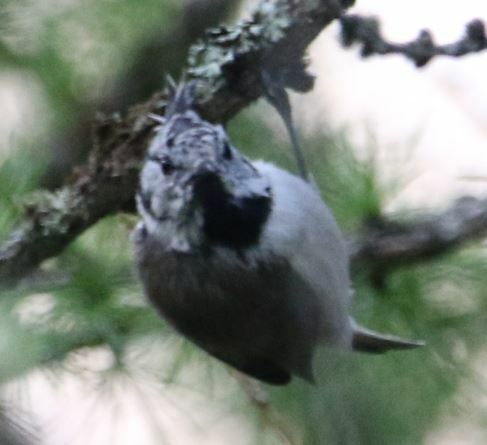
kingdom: Animalia
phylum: Chordata
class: Aves
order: Passeriformes
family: Paridae
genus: Lophophanes
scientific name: Lophophanes cristatus
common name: European crested tit
